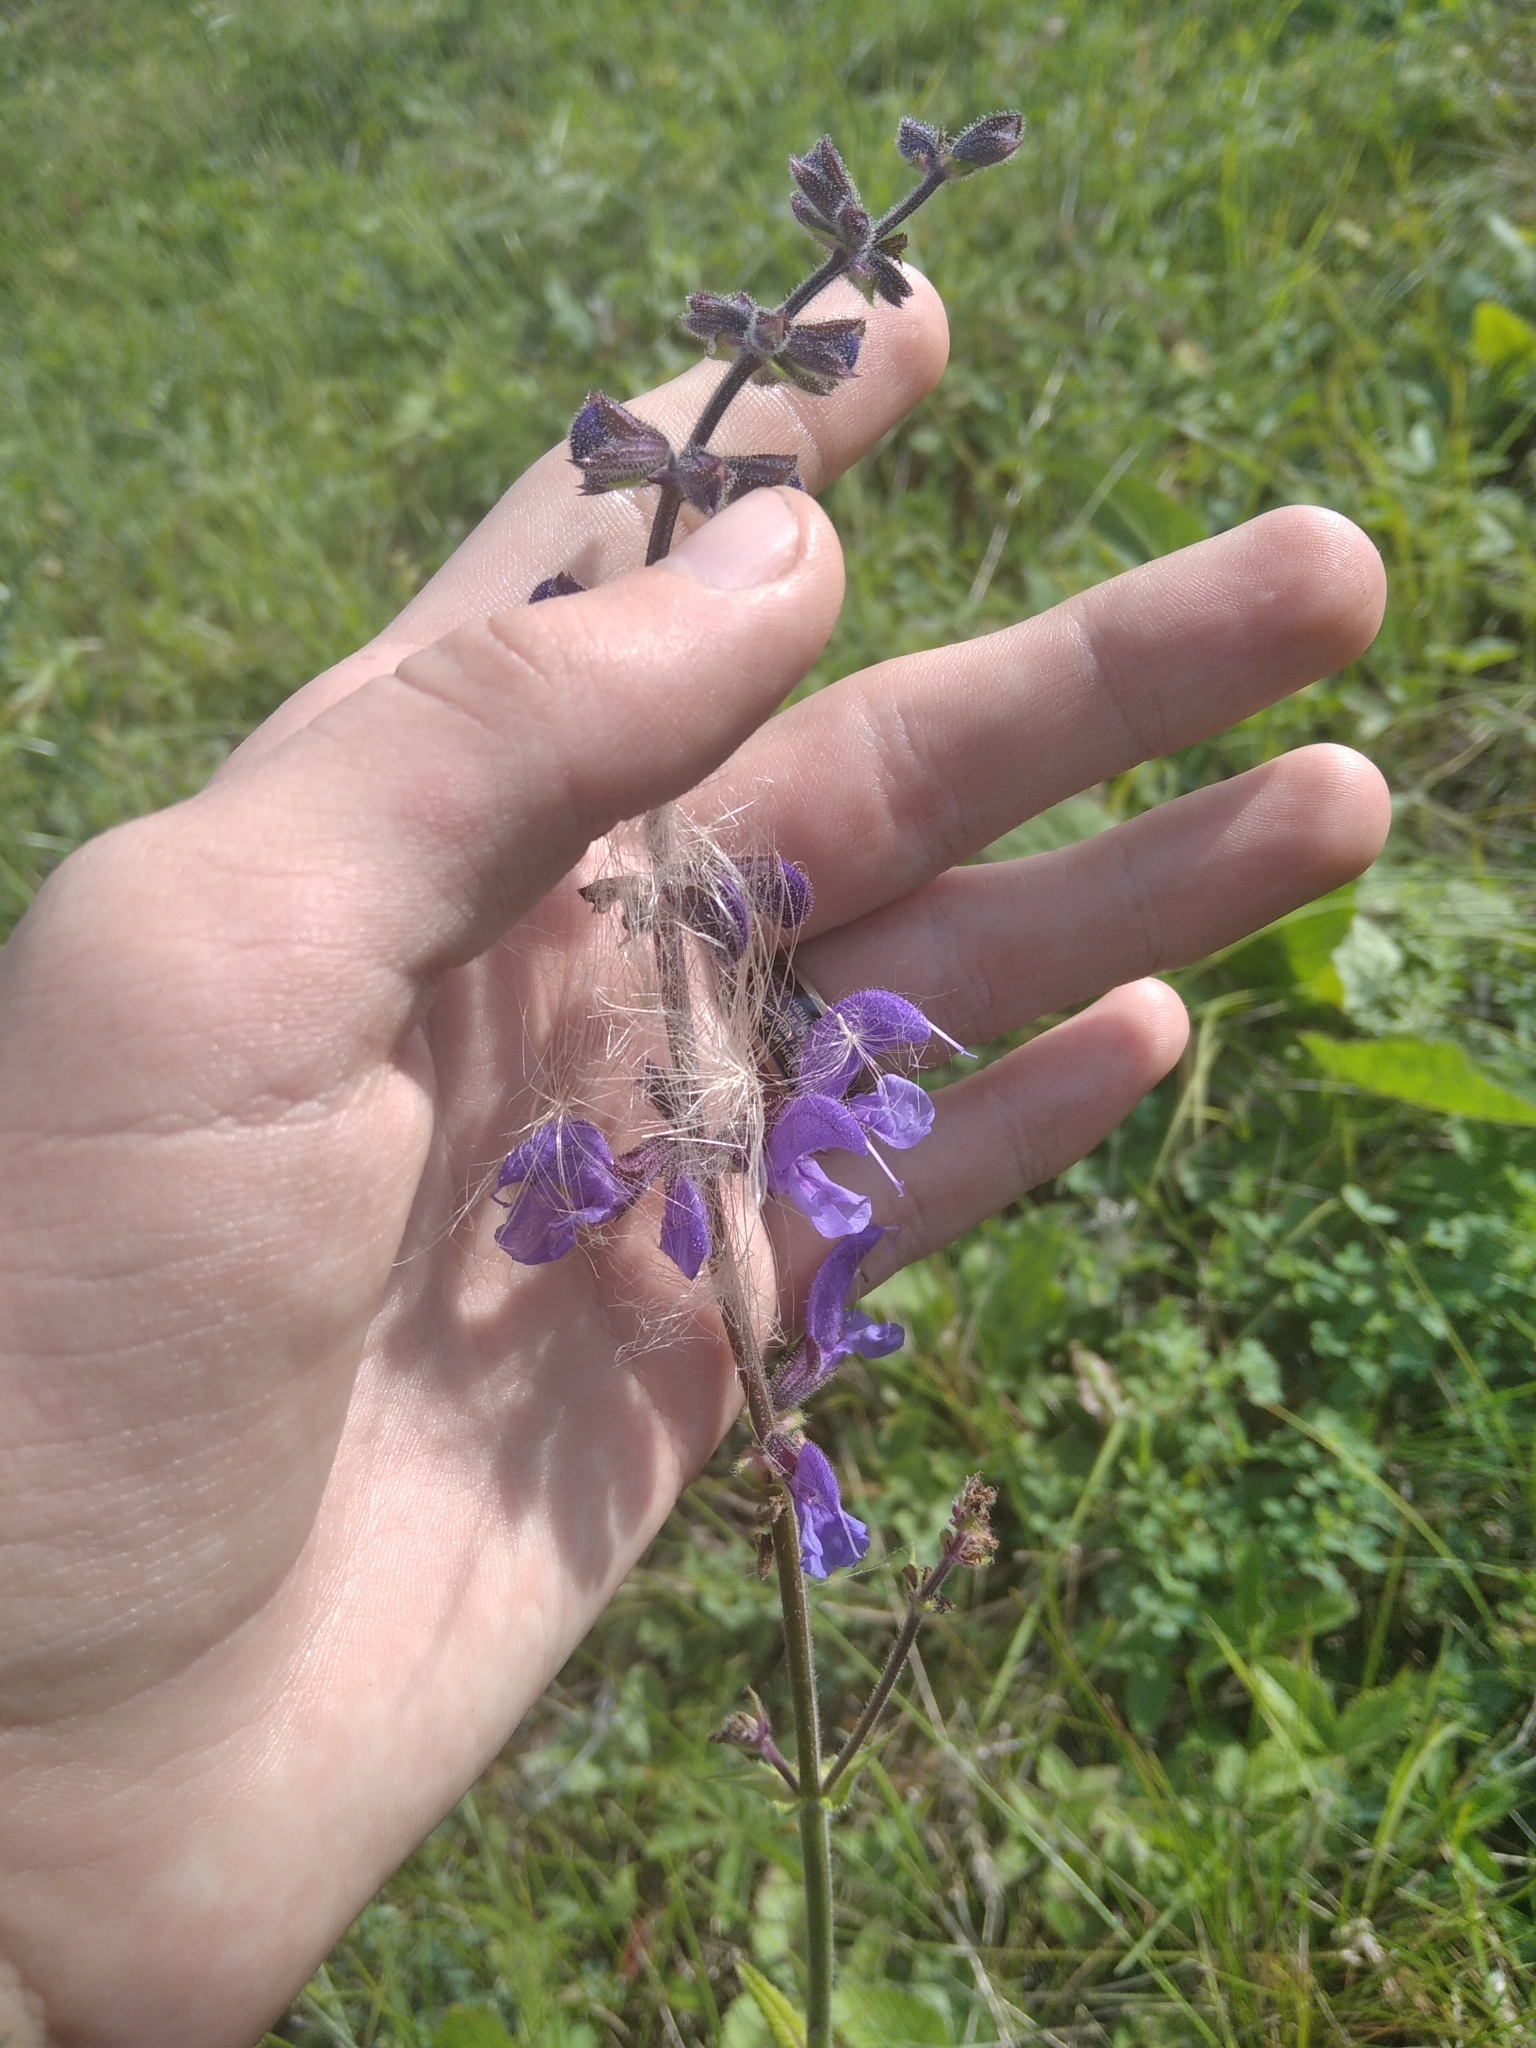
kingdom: Plantae
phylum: Tracheophyta
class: Magnoliopsida
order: Lamiales
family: Lamiaceae
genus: Salvia
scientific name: Salvia pratensis
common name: Meadow sage
